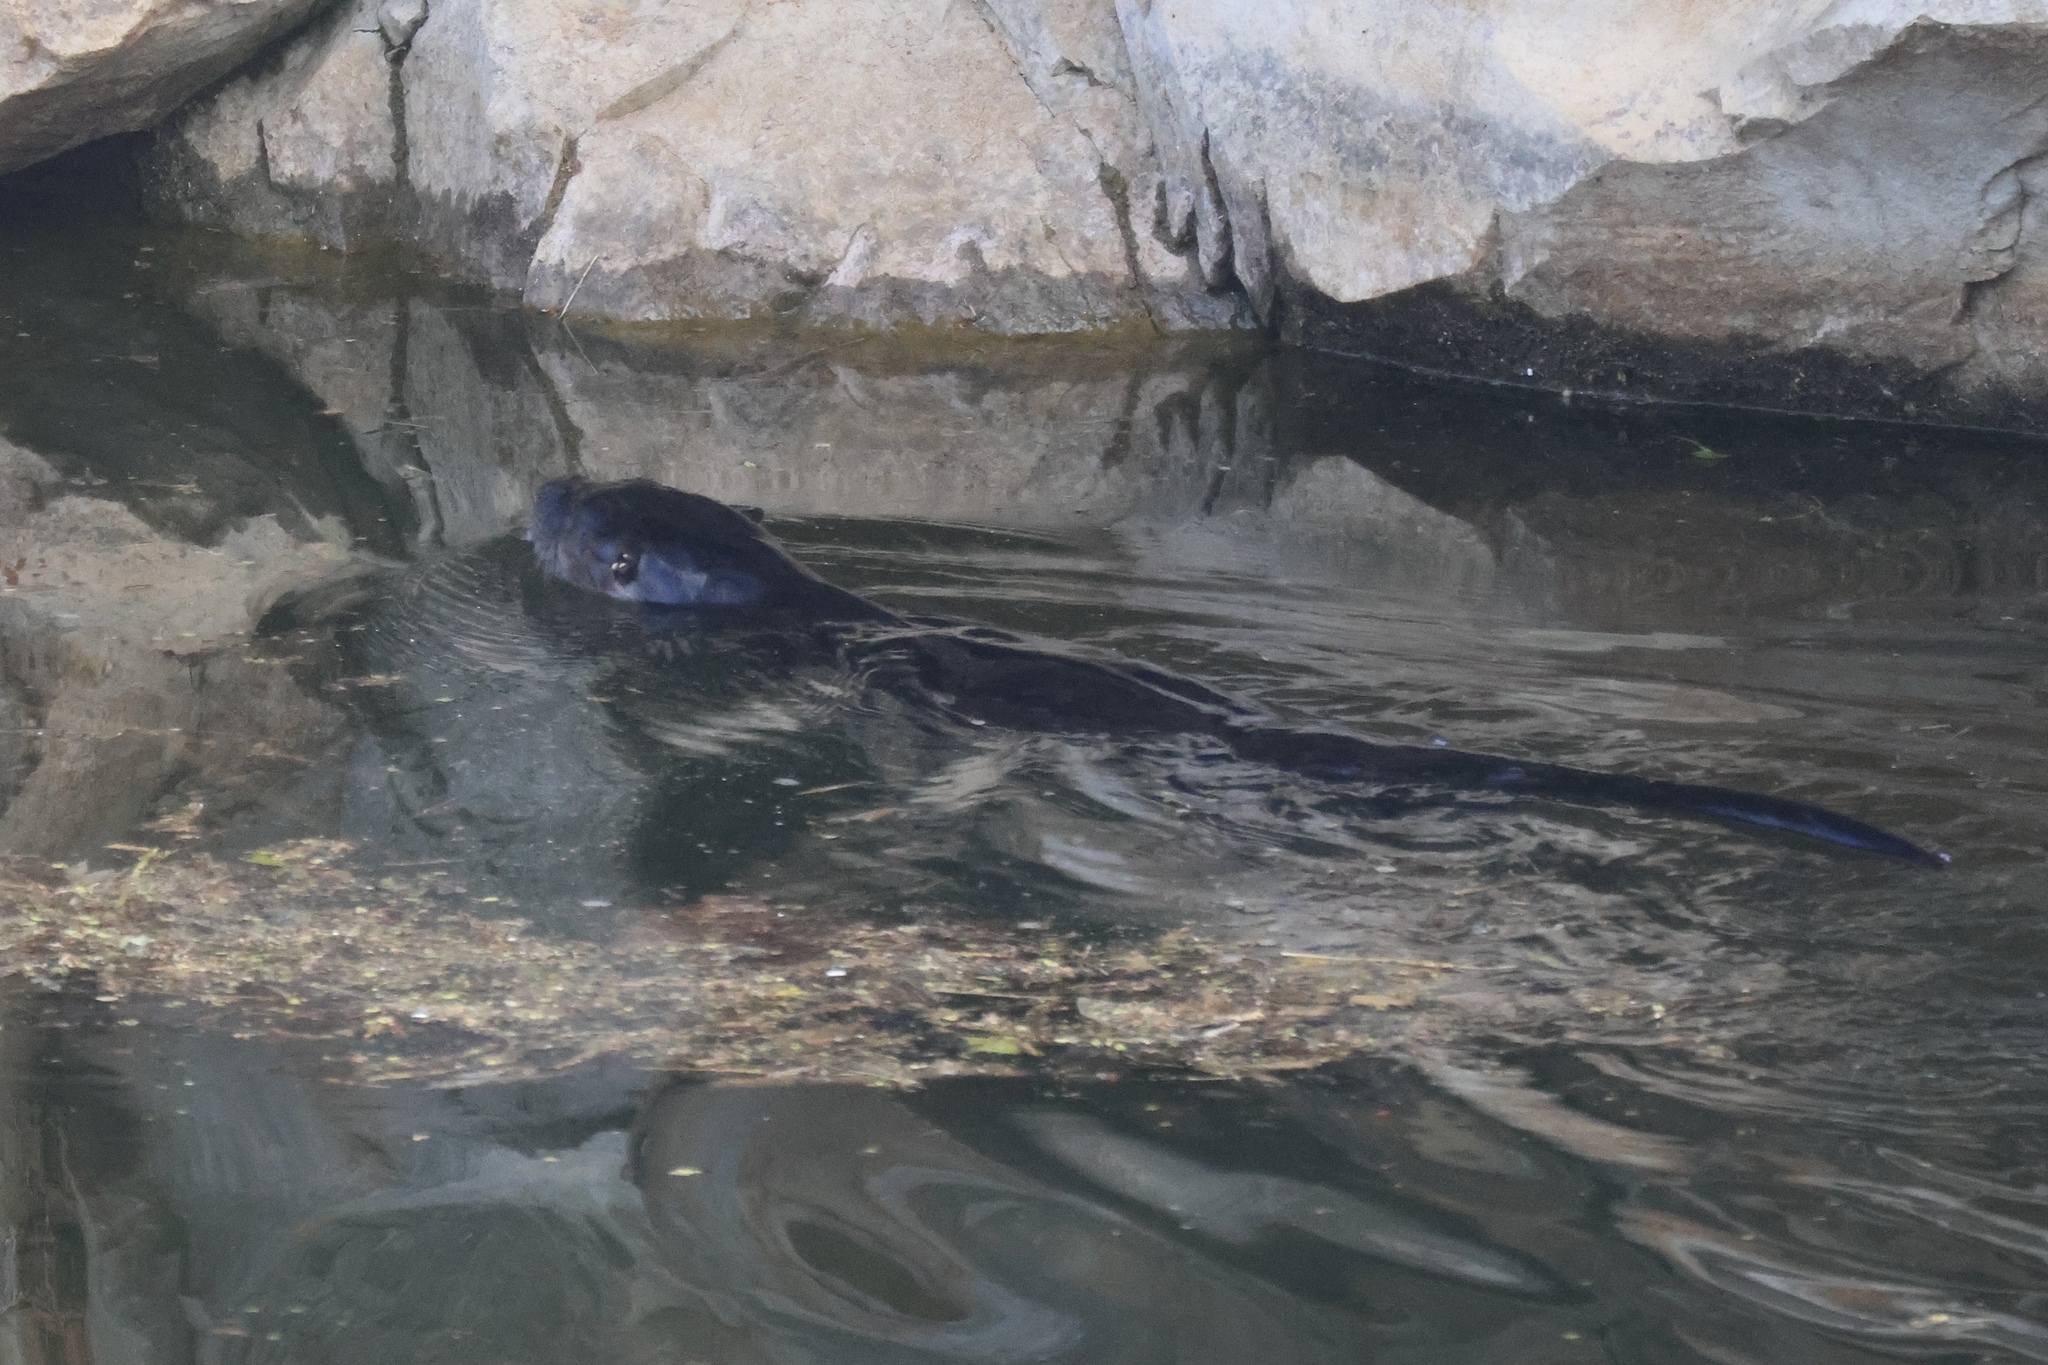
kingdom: Animalia
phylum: Chordata
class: Mammalia
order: Carnivora
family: Mustelidae
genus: Lontra
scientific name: Lontra canadensis
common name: North american river otter
